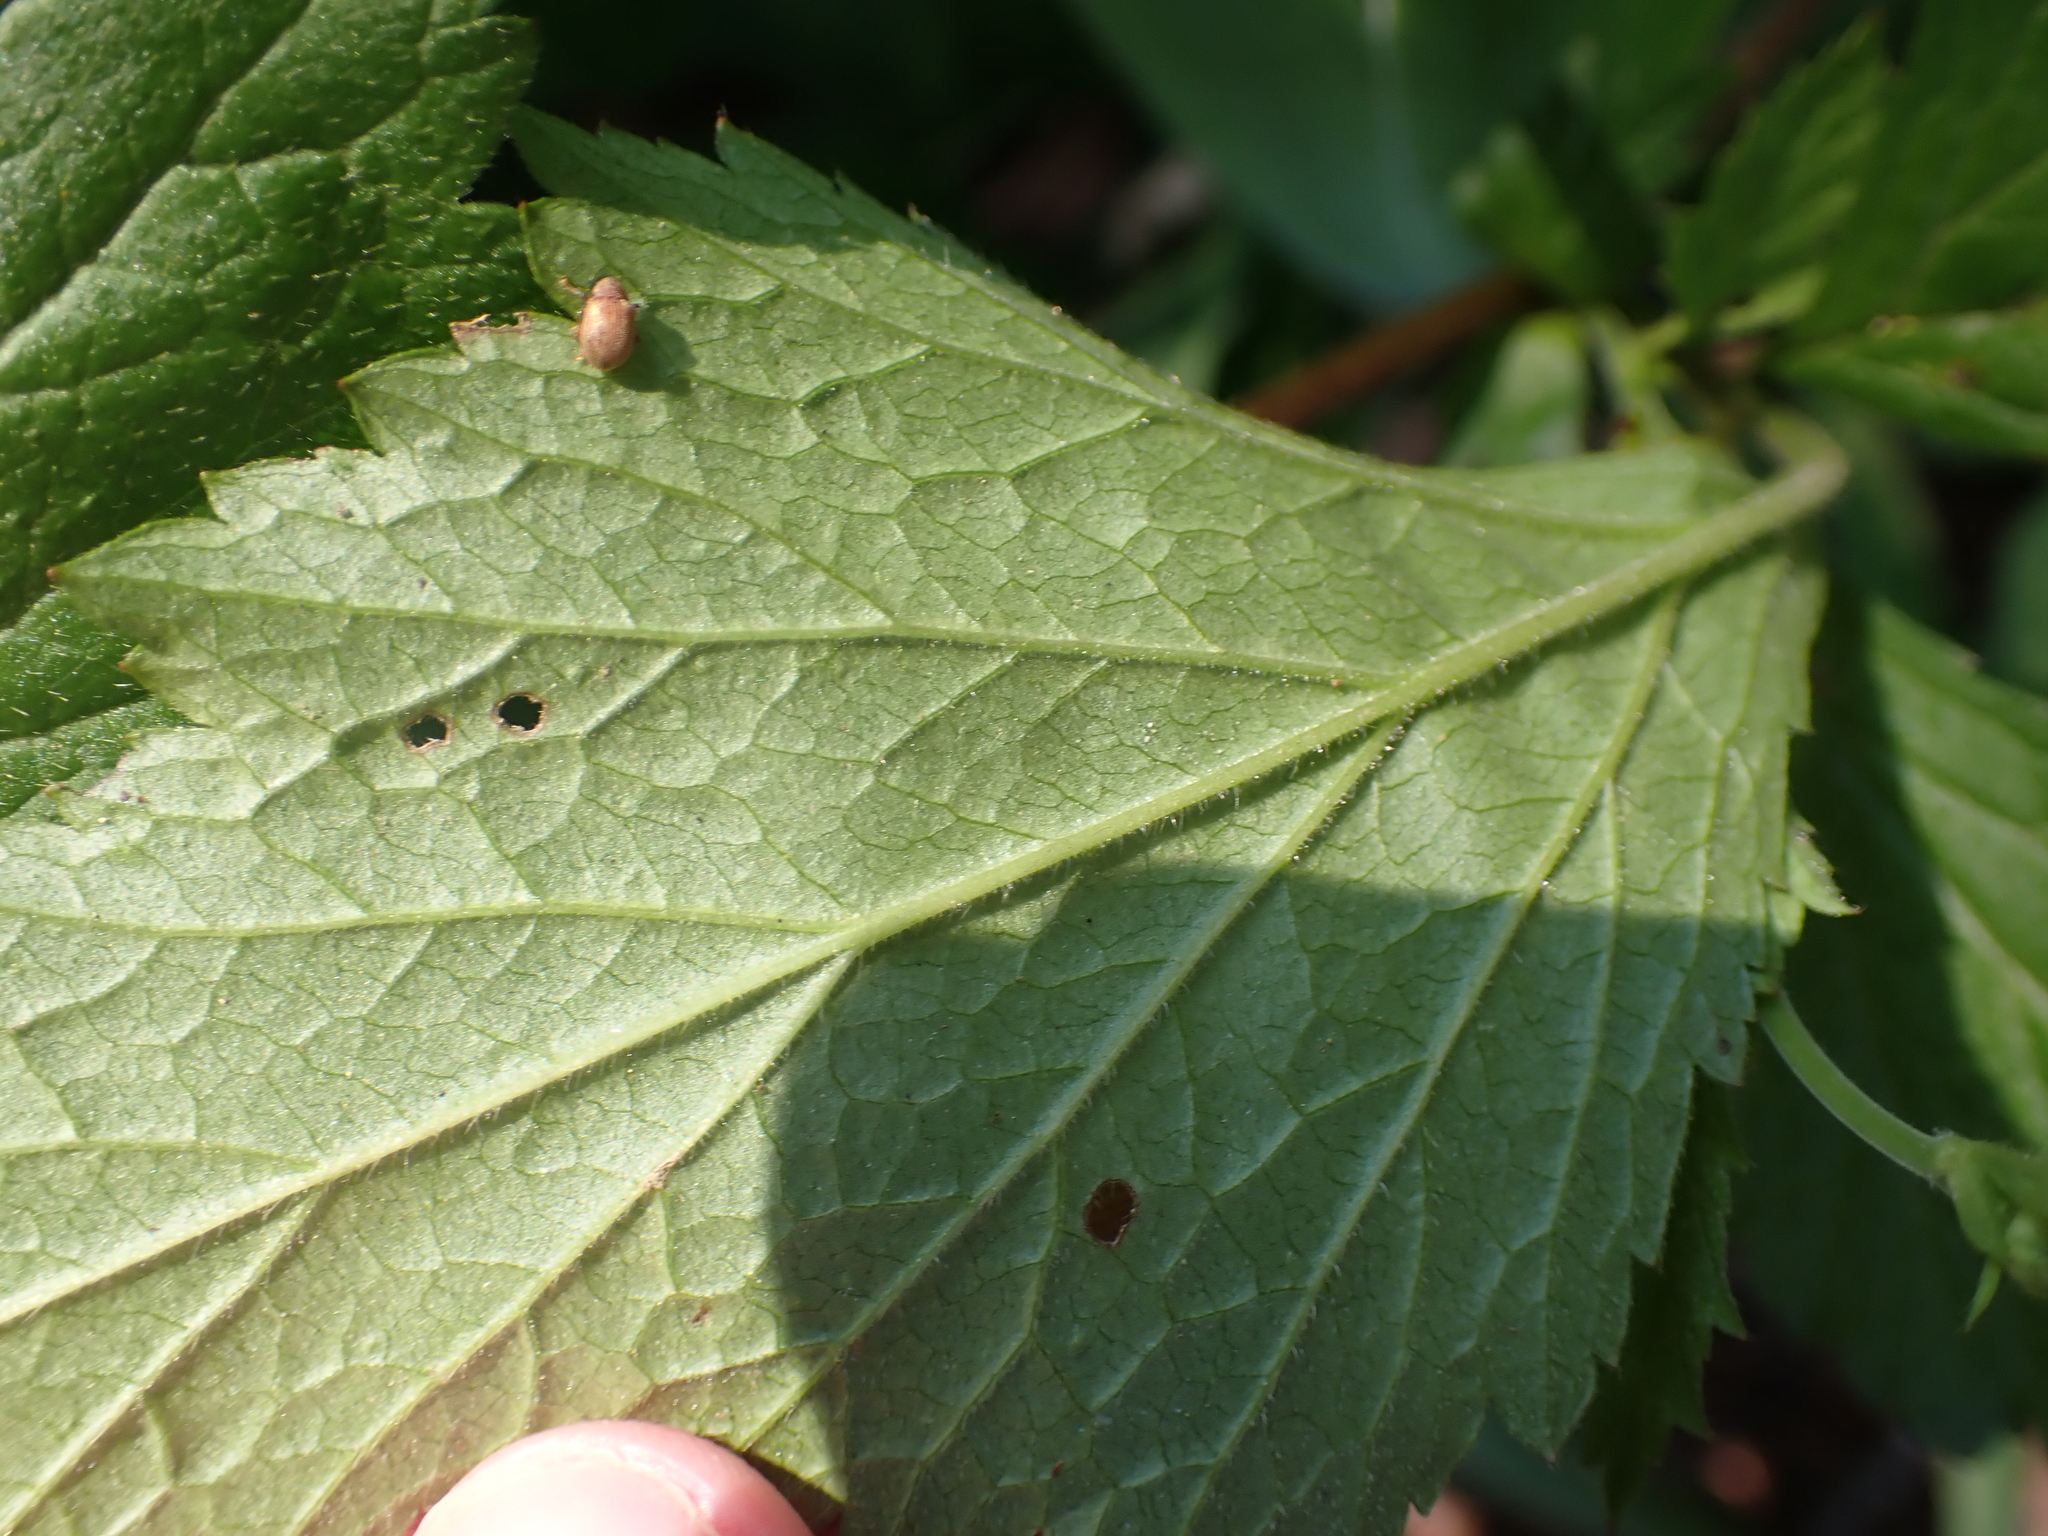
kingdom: Plantae
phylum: Tracheophyta
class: Magnoliopsida
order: Rosales
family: Rosaceae
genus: Geum
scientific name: Geum canadense
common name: White avens
